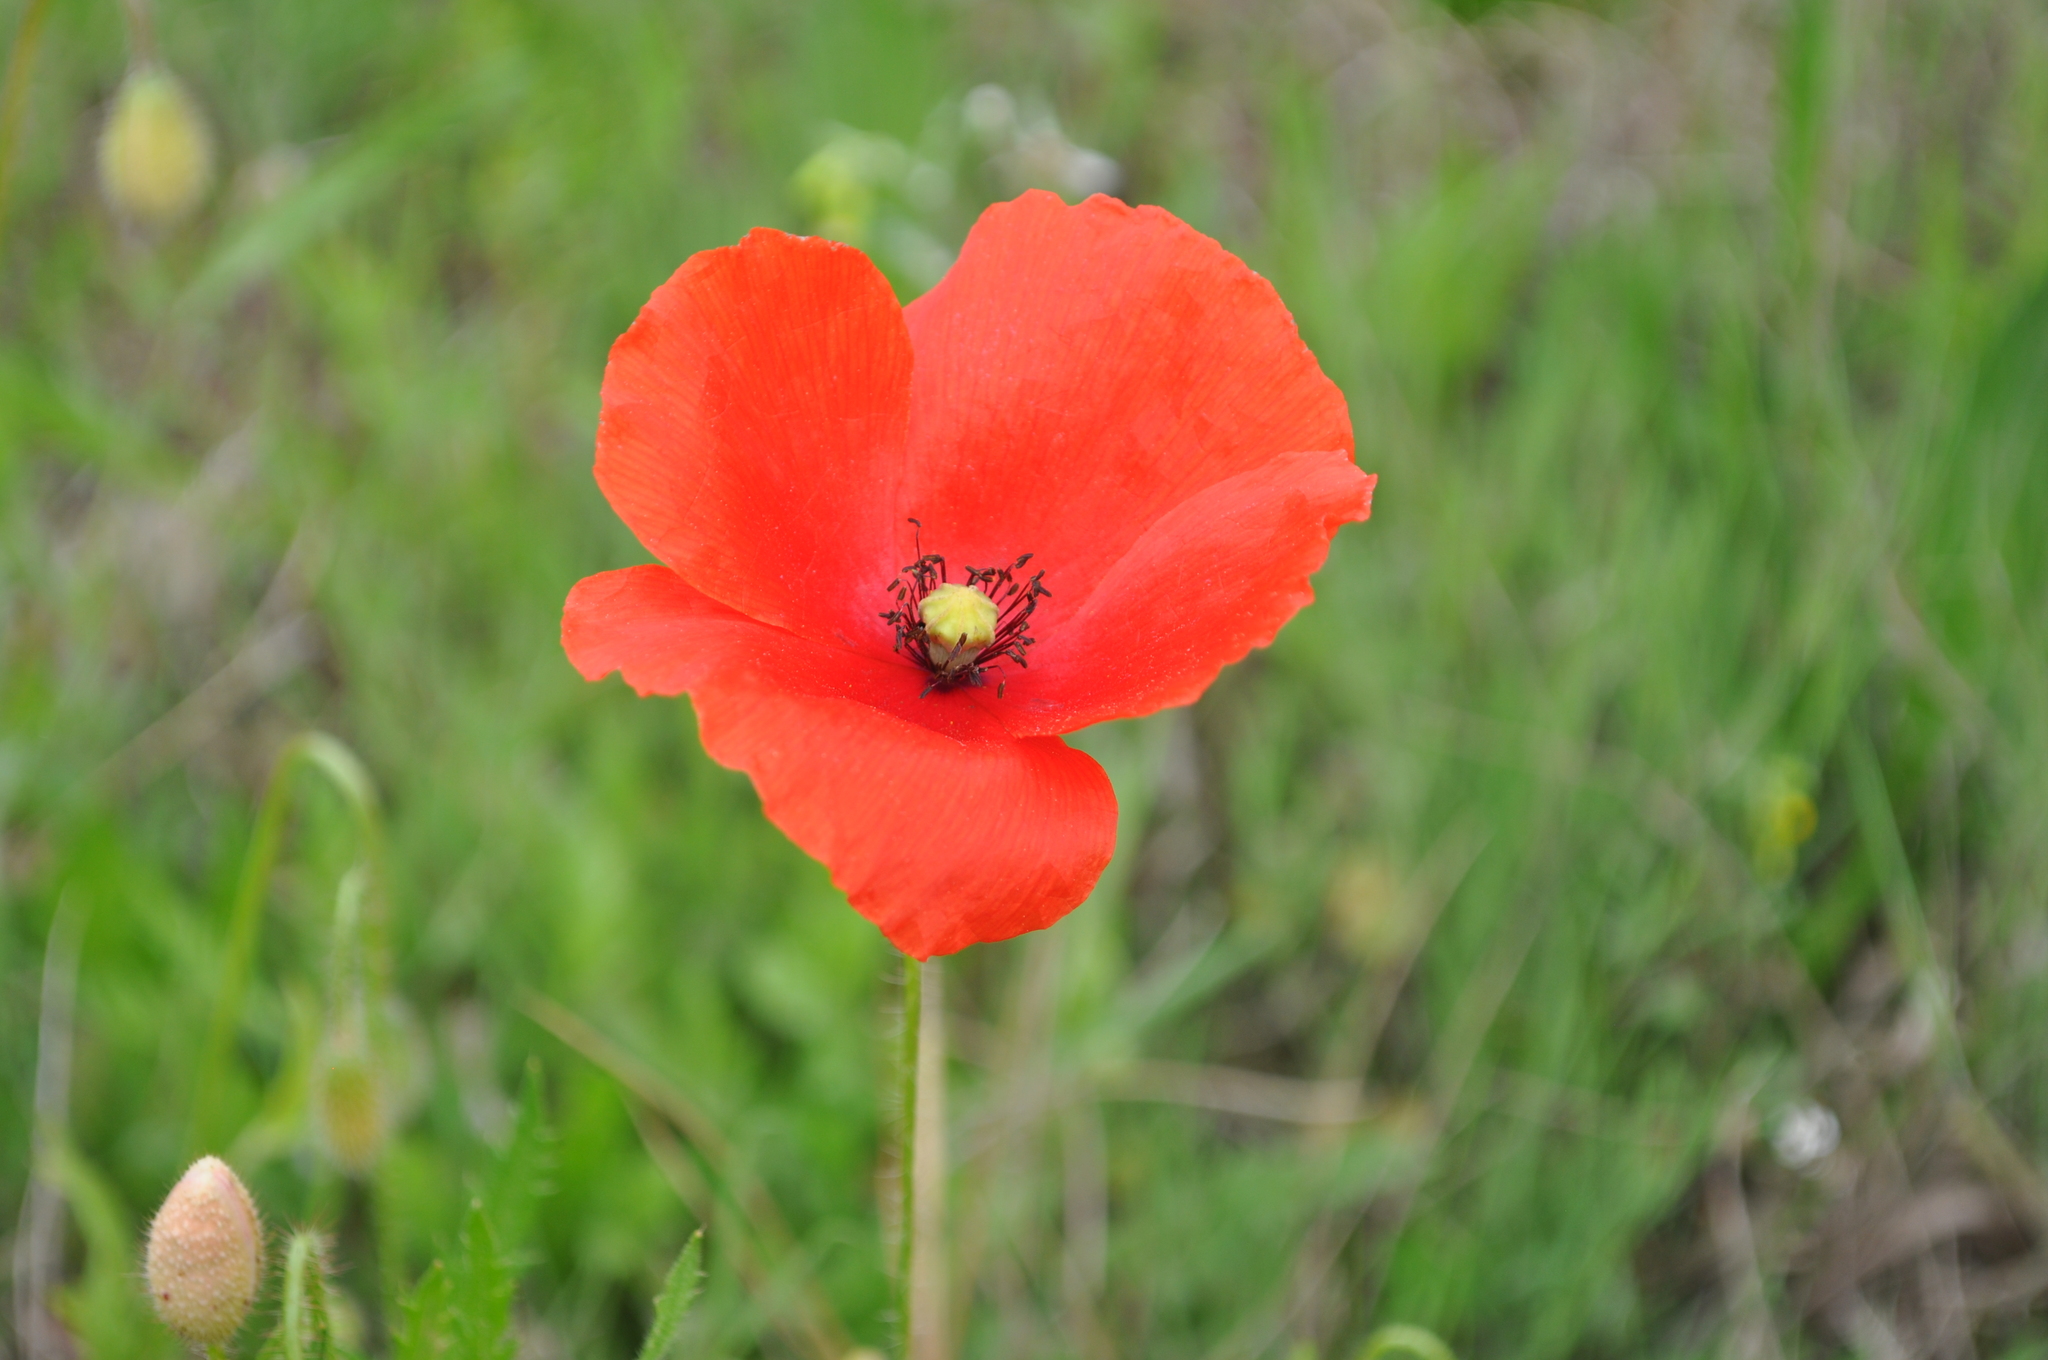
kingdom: Plantae
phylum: Tracheophyta
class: Magnoliopsida
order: Ranunculales
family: Papaveraceae
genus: Papaver
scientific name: Papaver rhoeas
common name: Corn poppy
